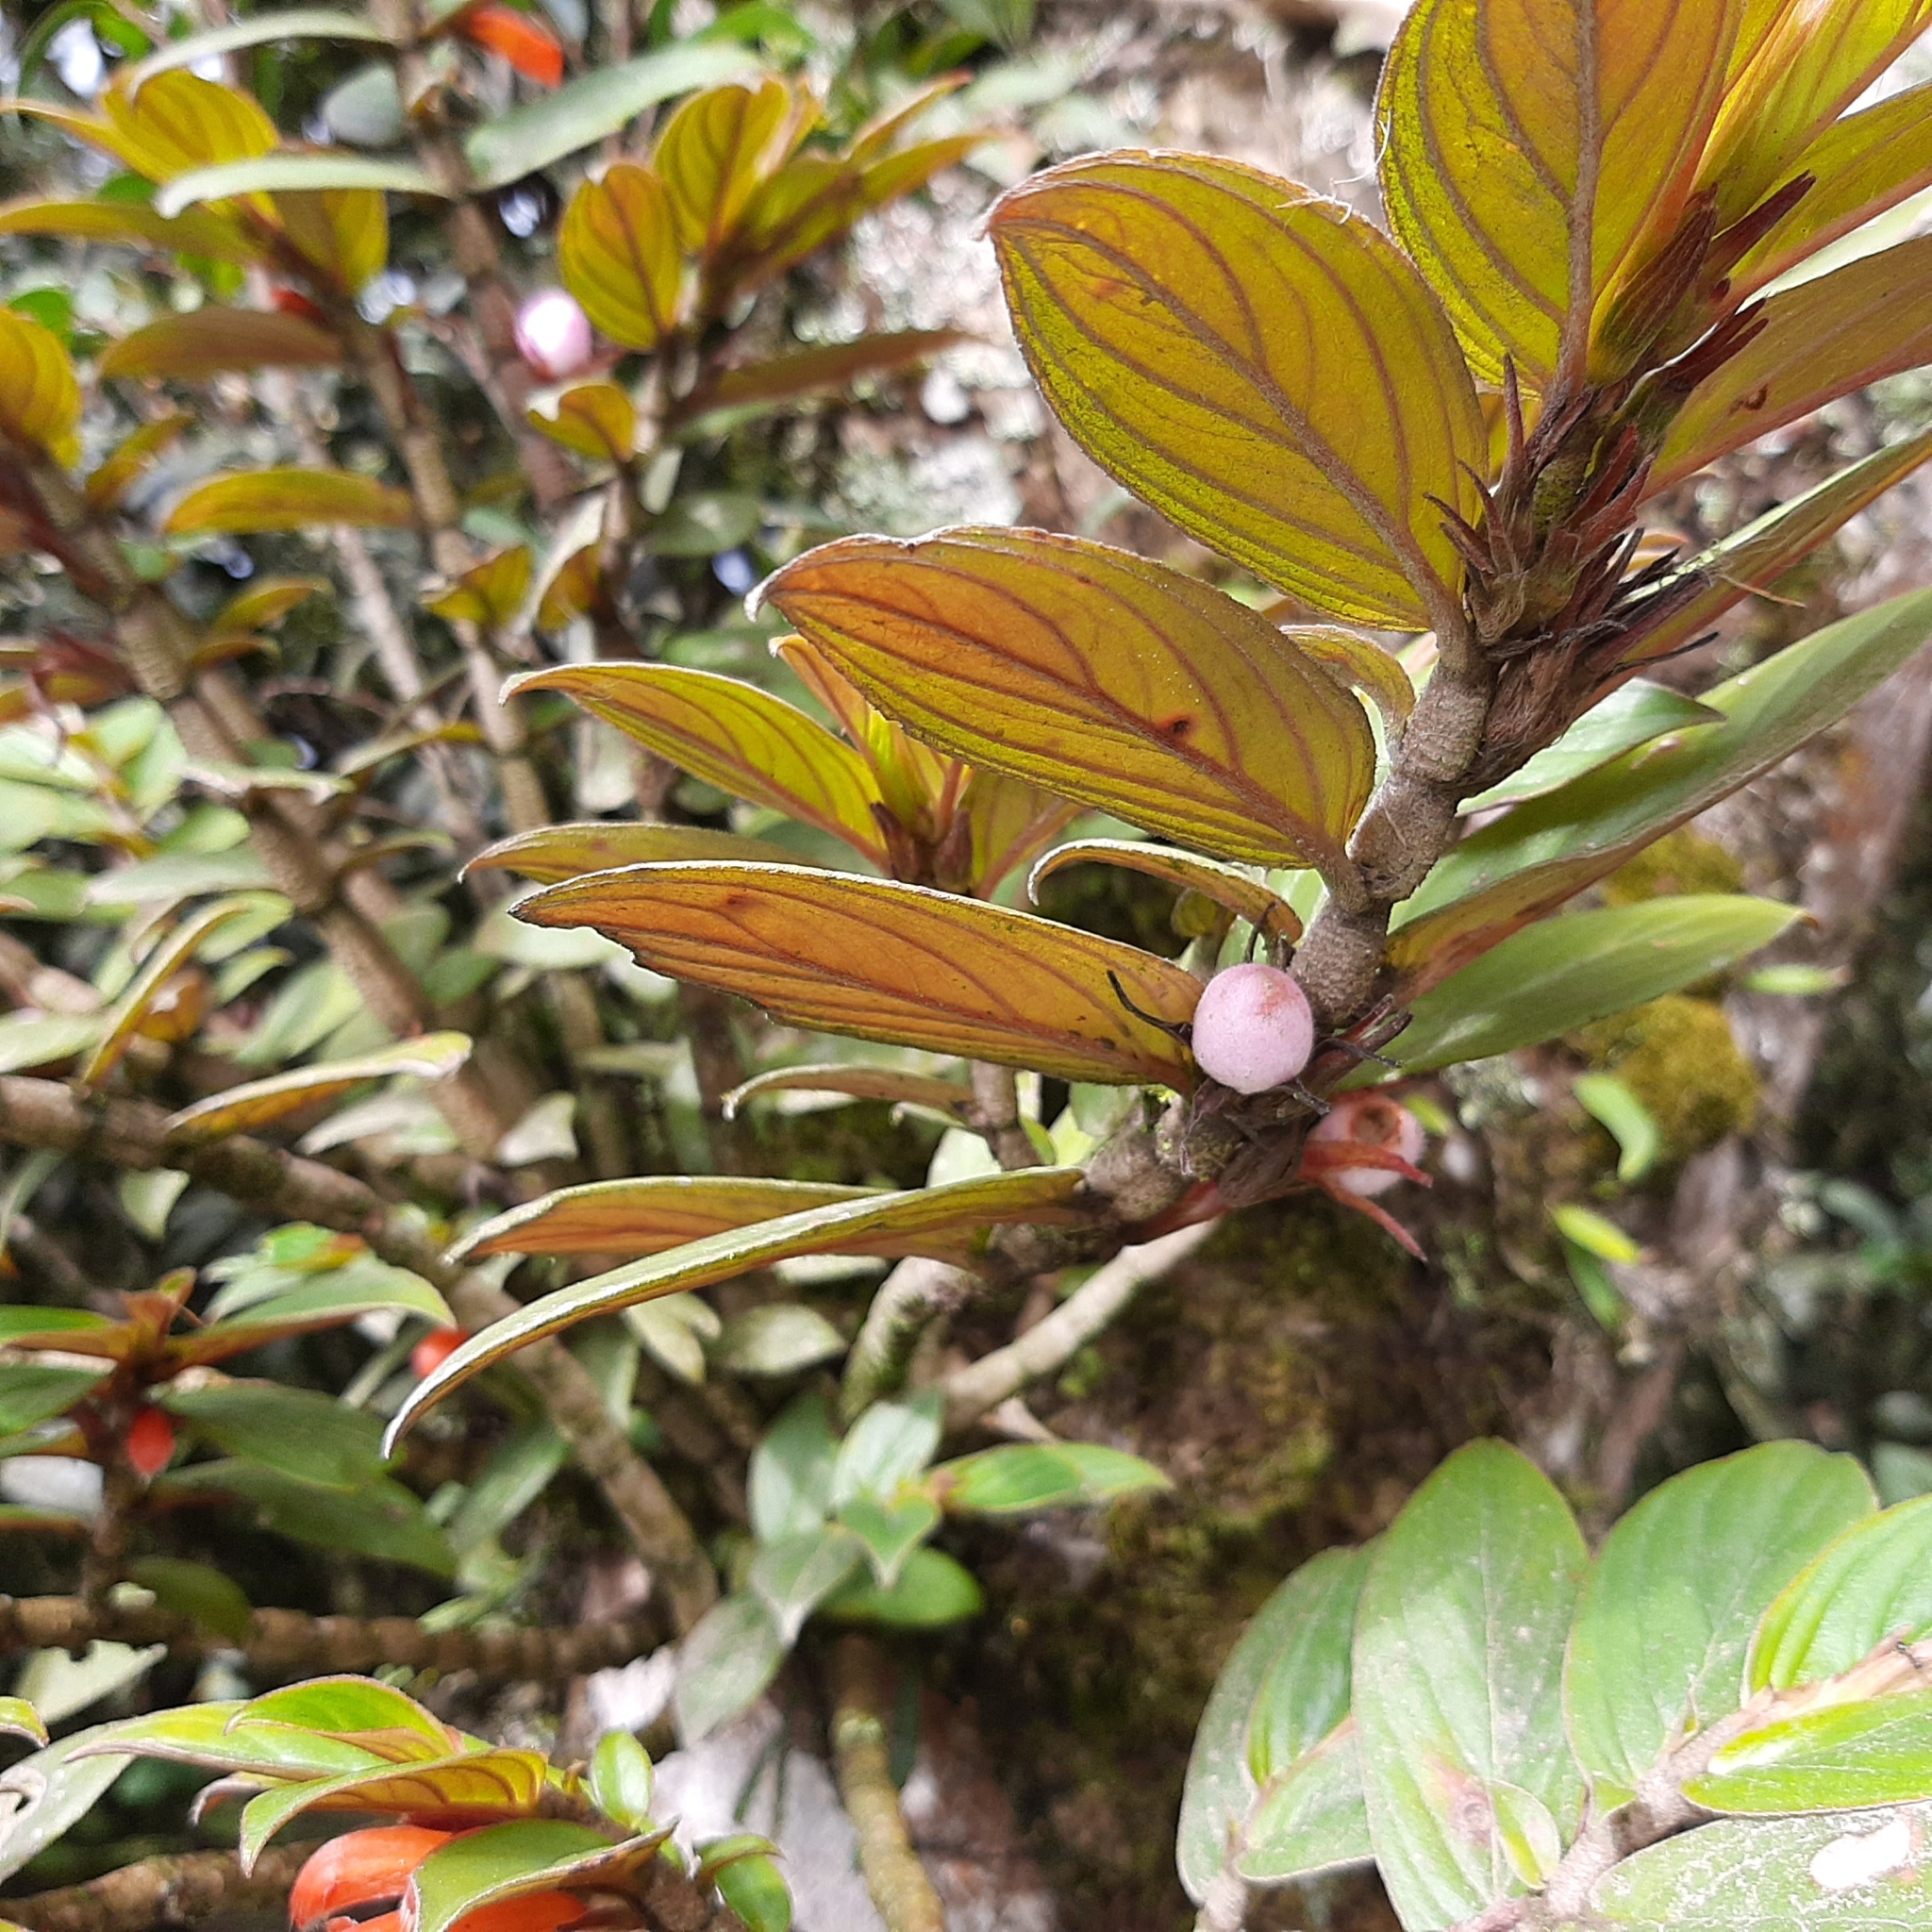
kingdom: Plantae
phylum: Tracheophyta
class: Magnoliopsida
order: Lamiales
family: Gesneriaceae
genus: Columnea
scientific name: Columnea verecunda
